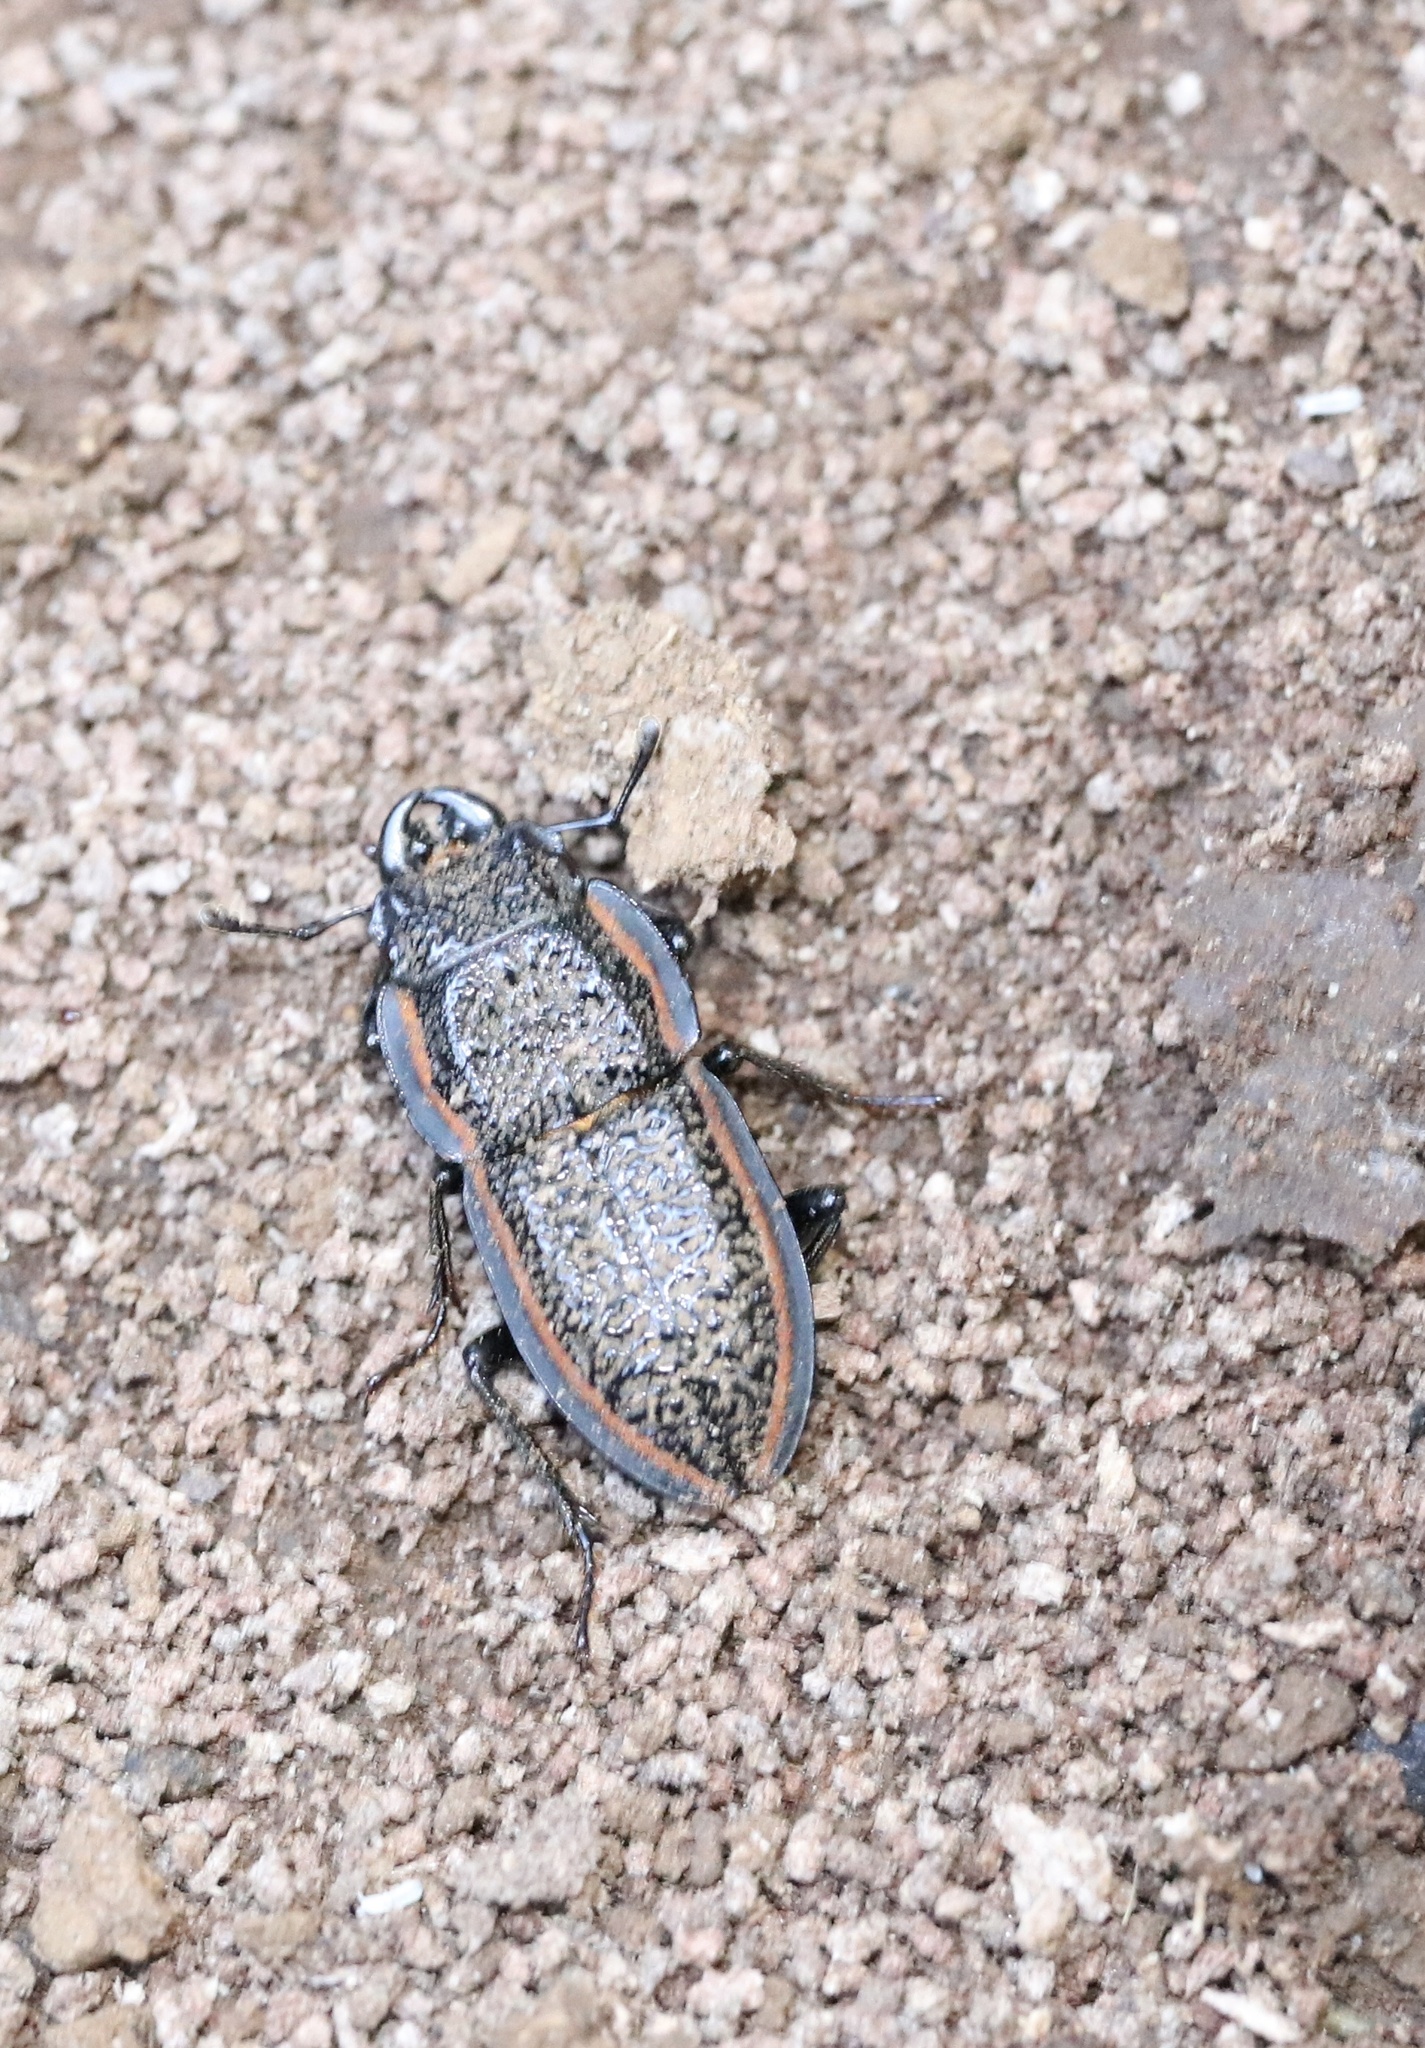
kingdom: Animalia
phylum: Arthropoda
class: Insecta
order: Coleoptera
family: Lucanidae
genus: Erichius
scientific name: Erichius caelatus
